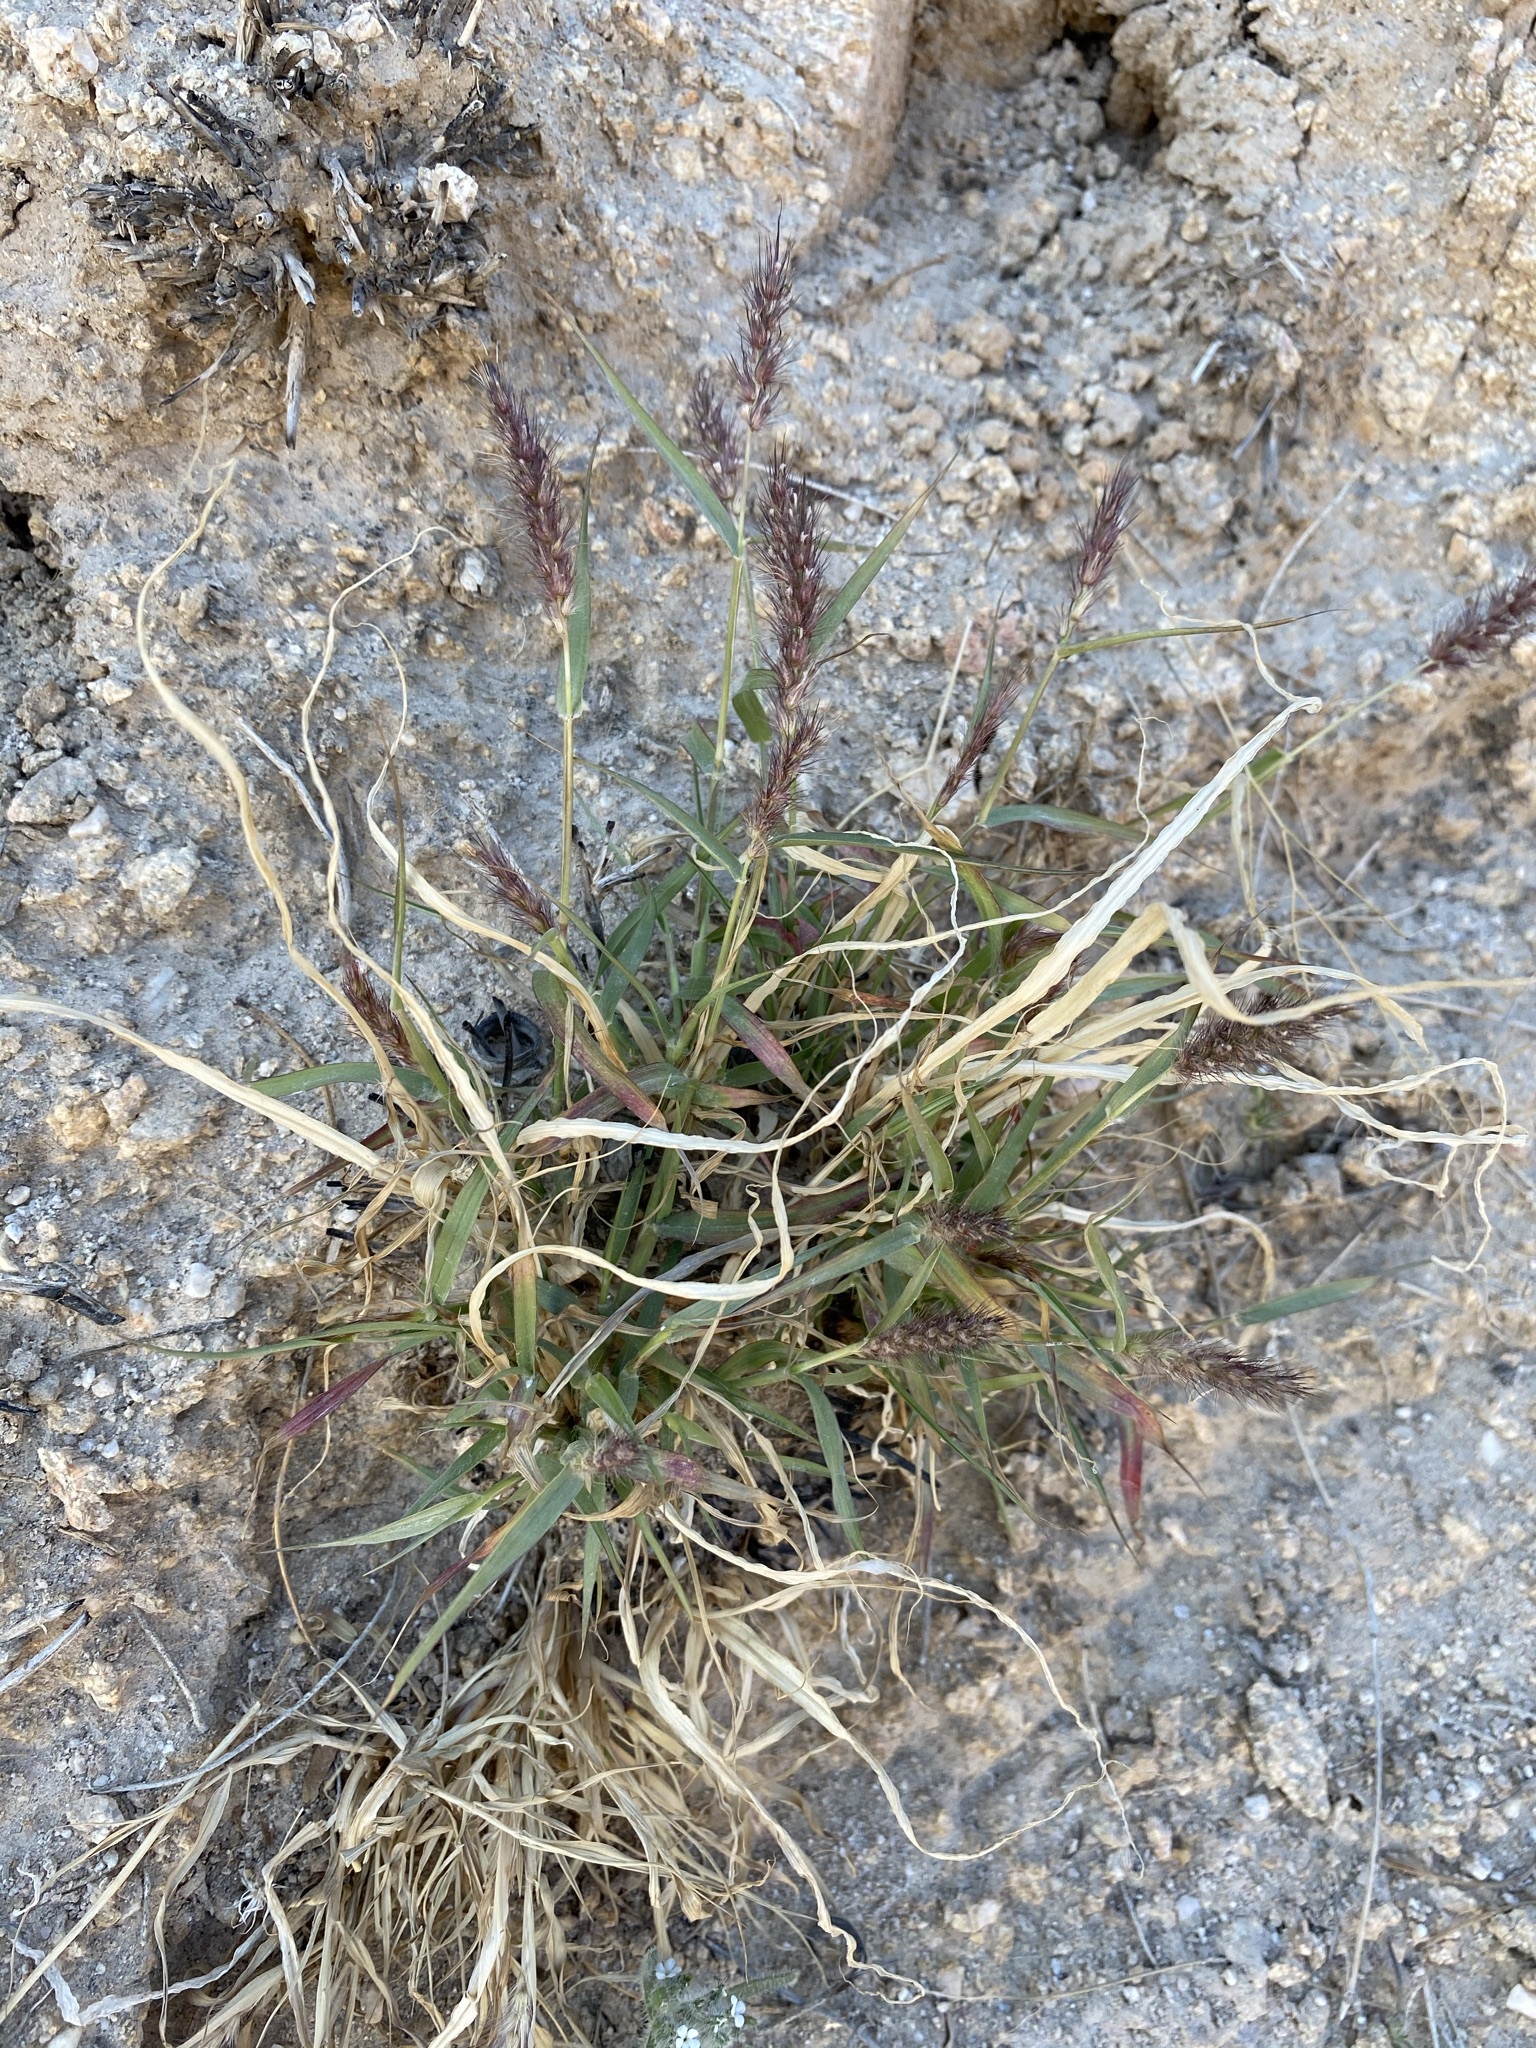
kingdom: Plantae
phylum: Tracheophyta
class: Liliopsida
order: Poales
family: Poaceae
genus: Cenchrus
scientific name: Cenchrus ciliaris
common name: Buffelgrass
